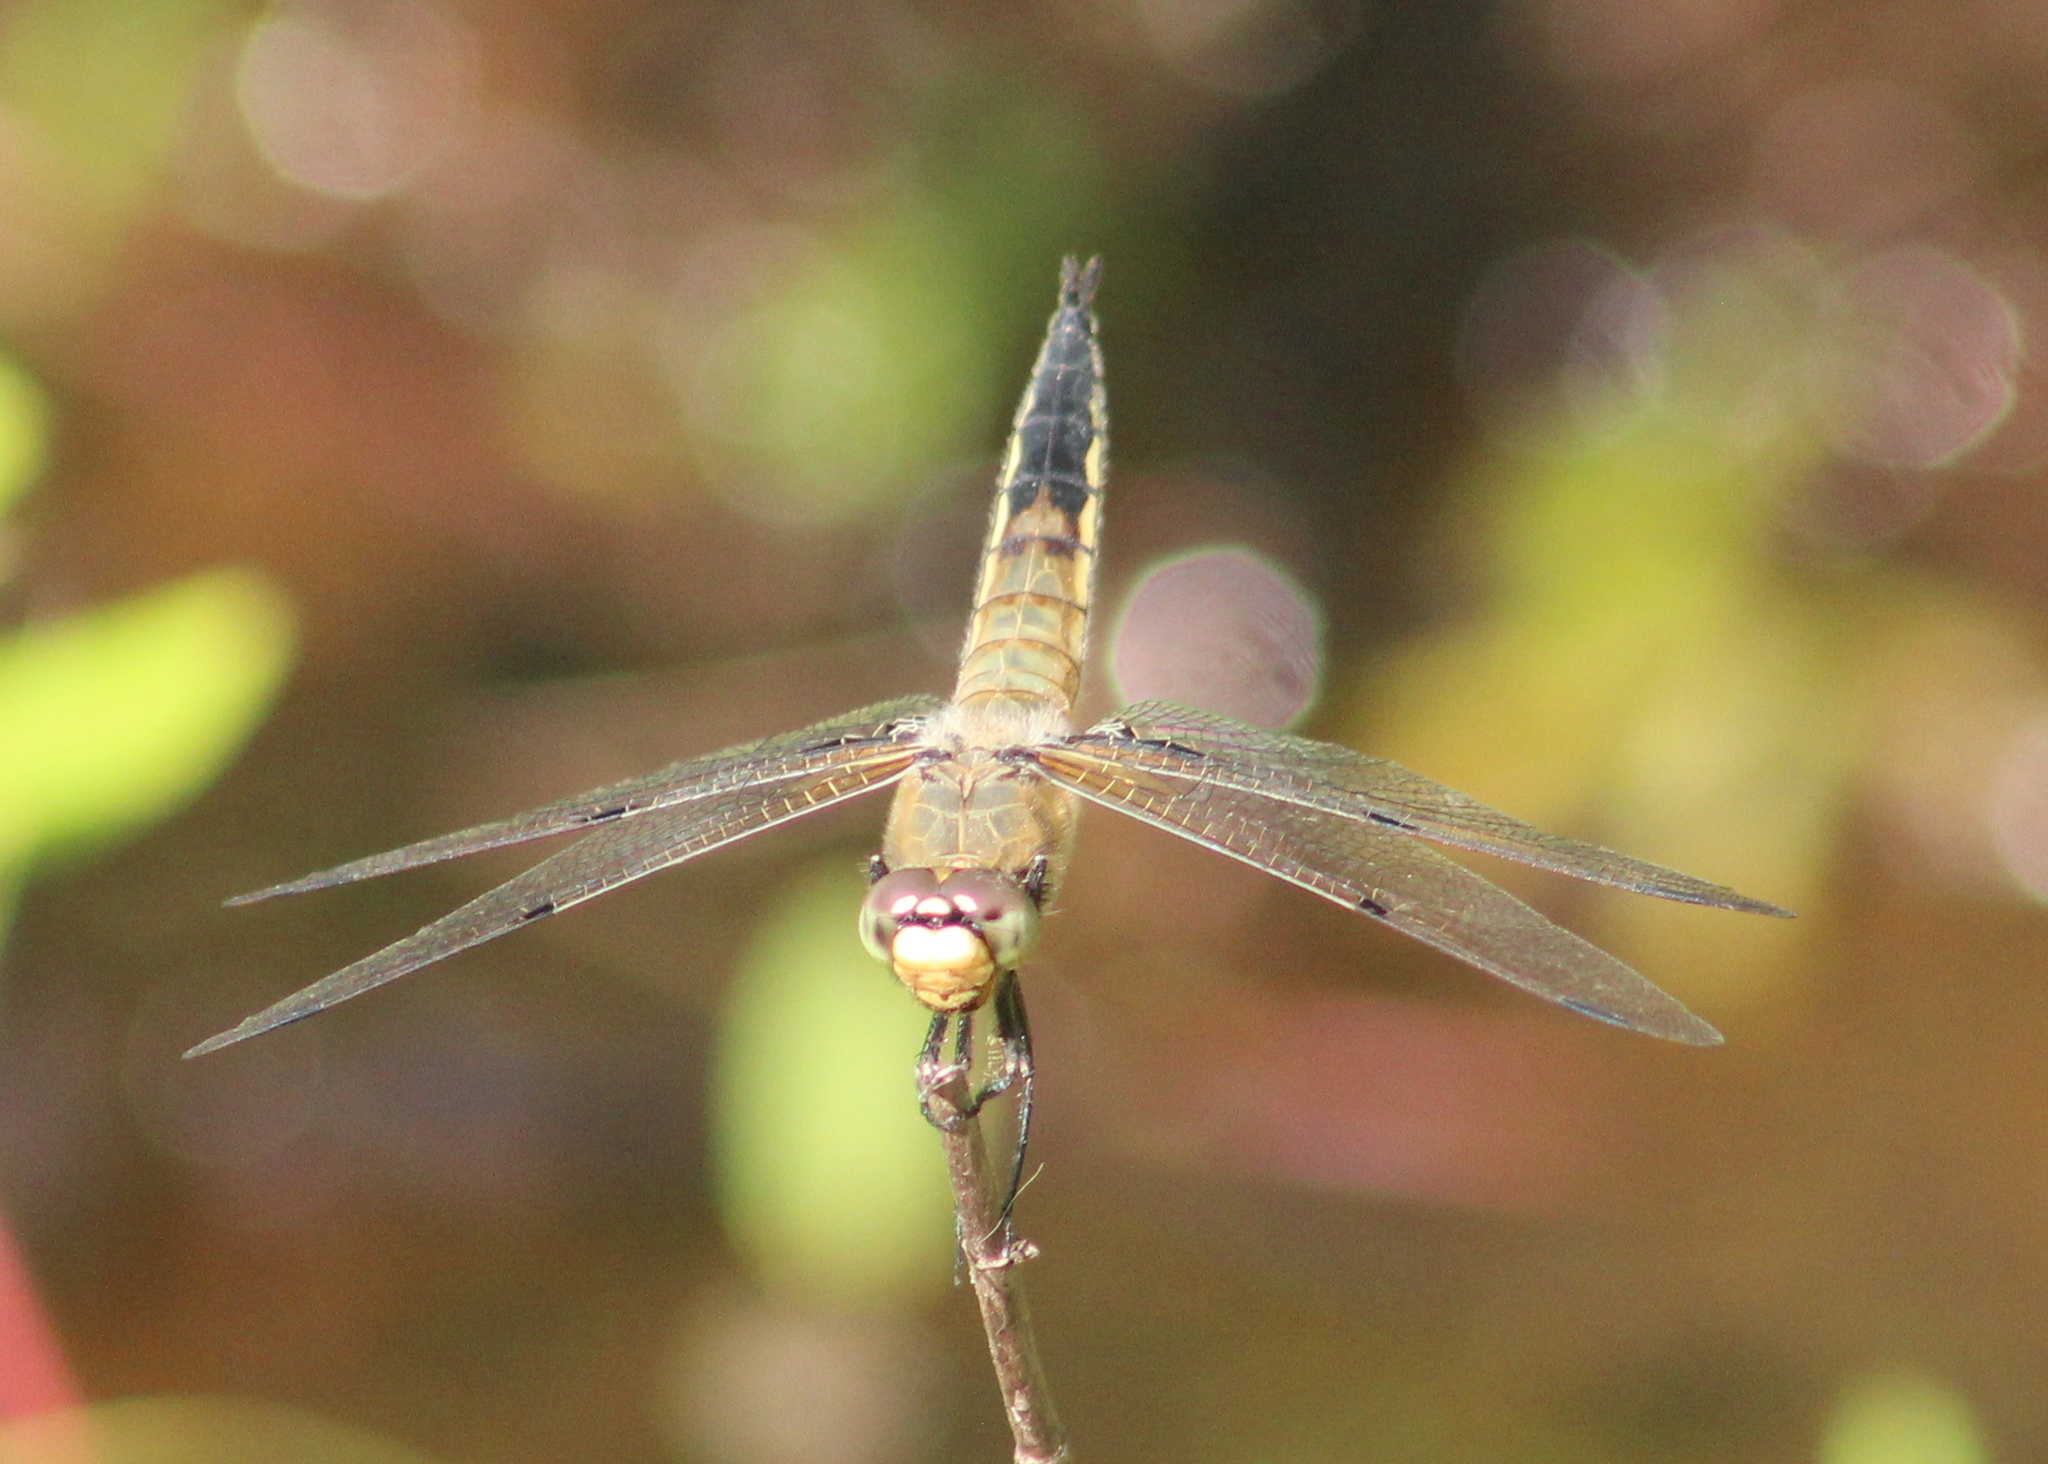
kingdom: Animalia
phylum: Arthropoda
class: Insecta
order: Odonata
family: Libellulidae
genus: Libellula
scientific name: Libellula quadrimaculata
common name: Four-spotted chaser
